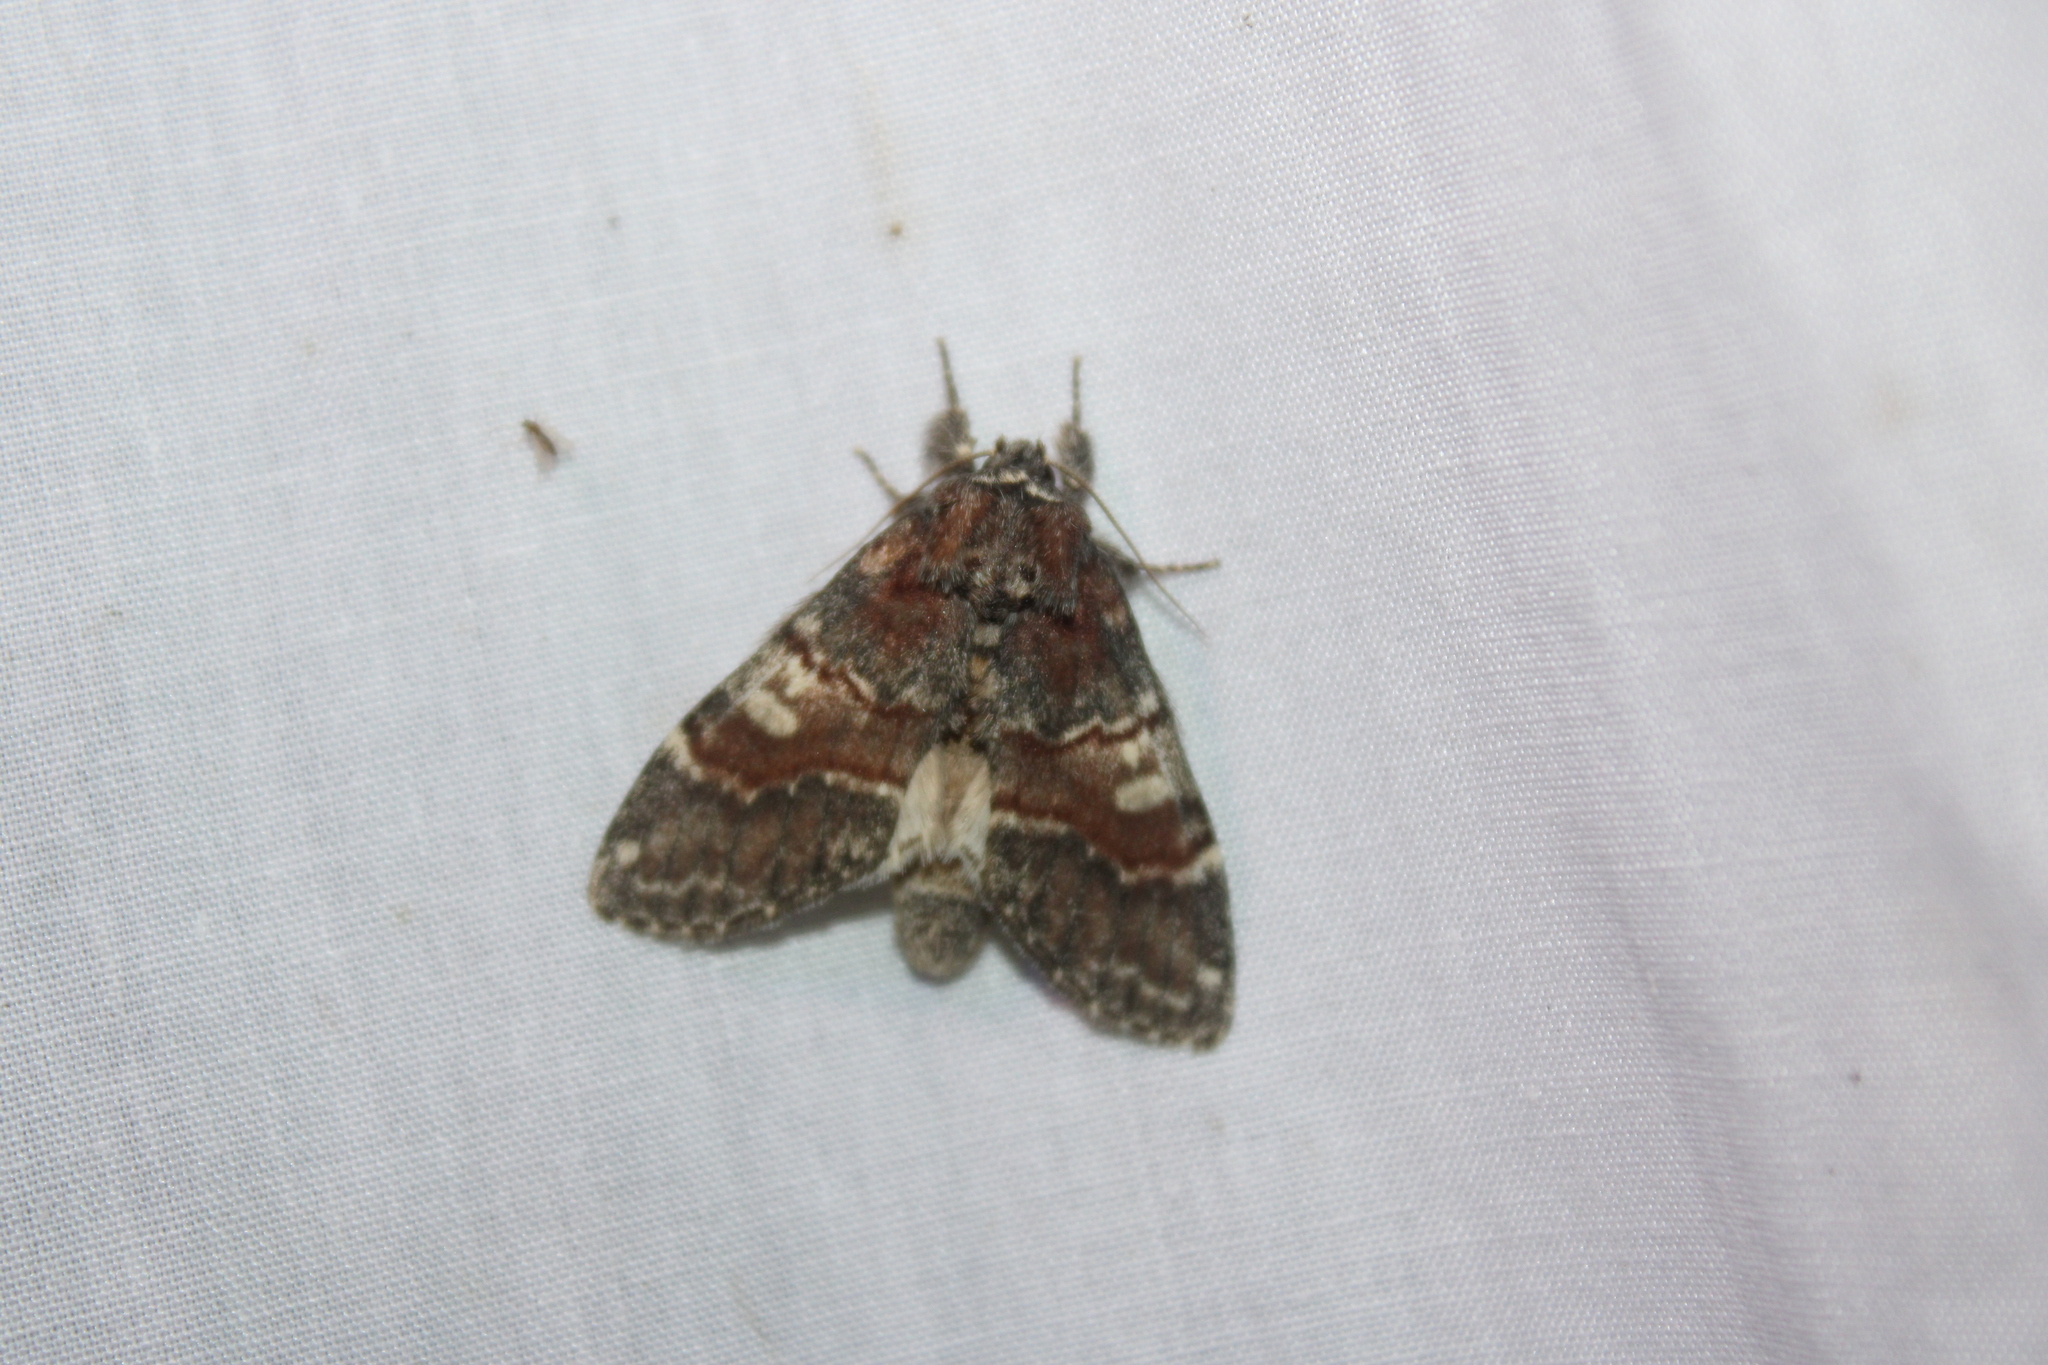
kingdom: Animalia
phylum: Arthropoda
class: Insecta
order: Lepidoptera
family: Notodontidae
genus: Peridea
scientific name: Peridea ferruginea
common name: Chocolate prominent
